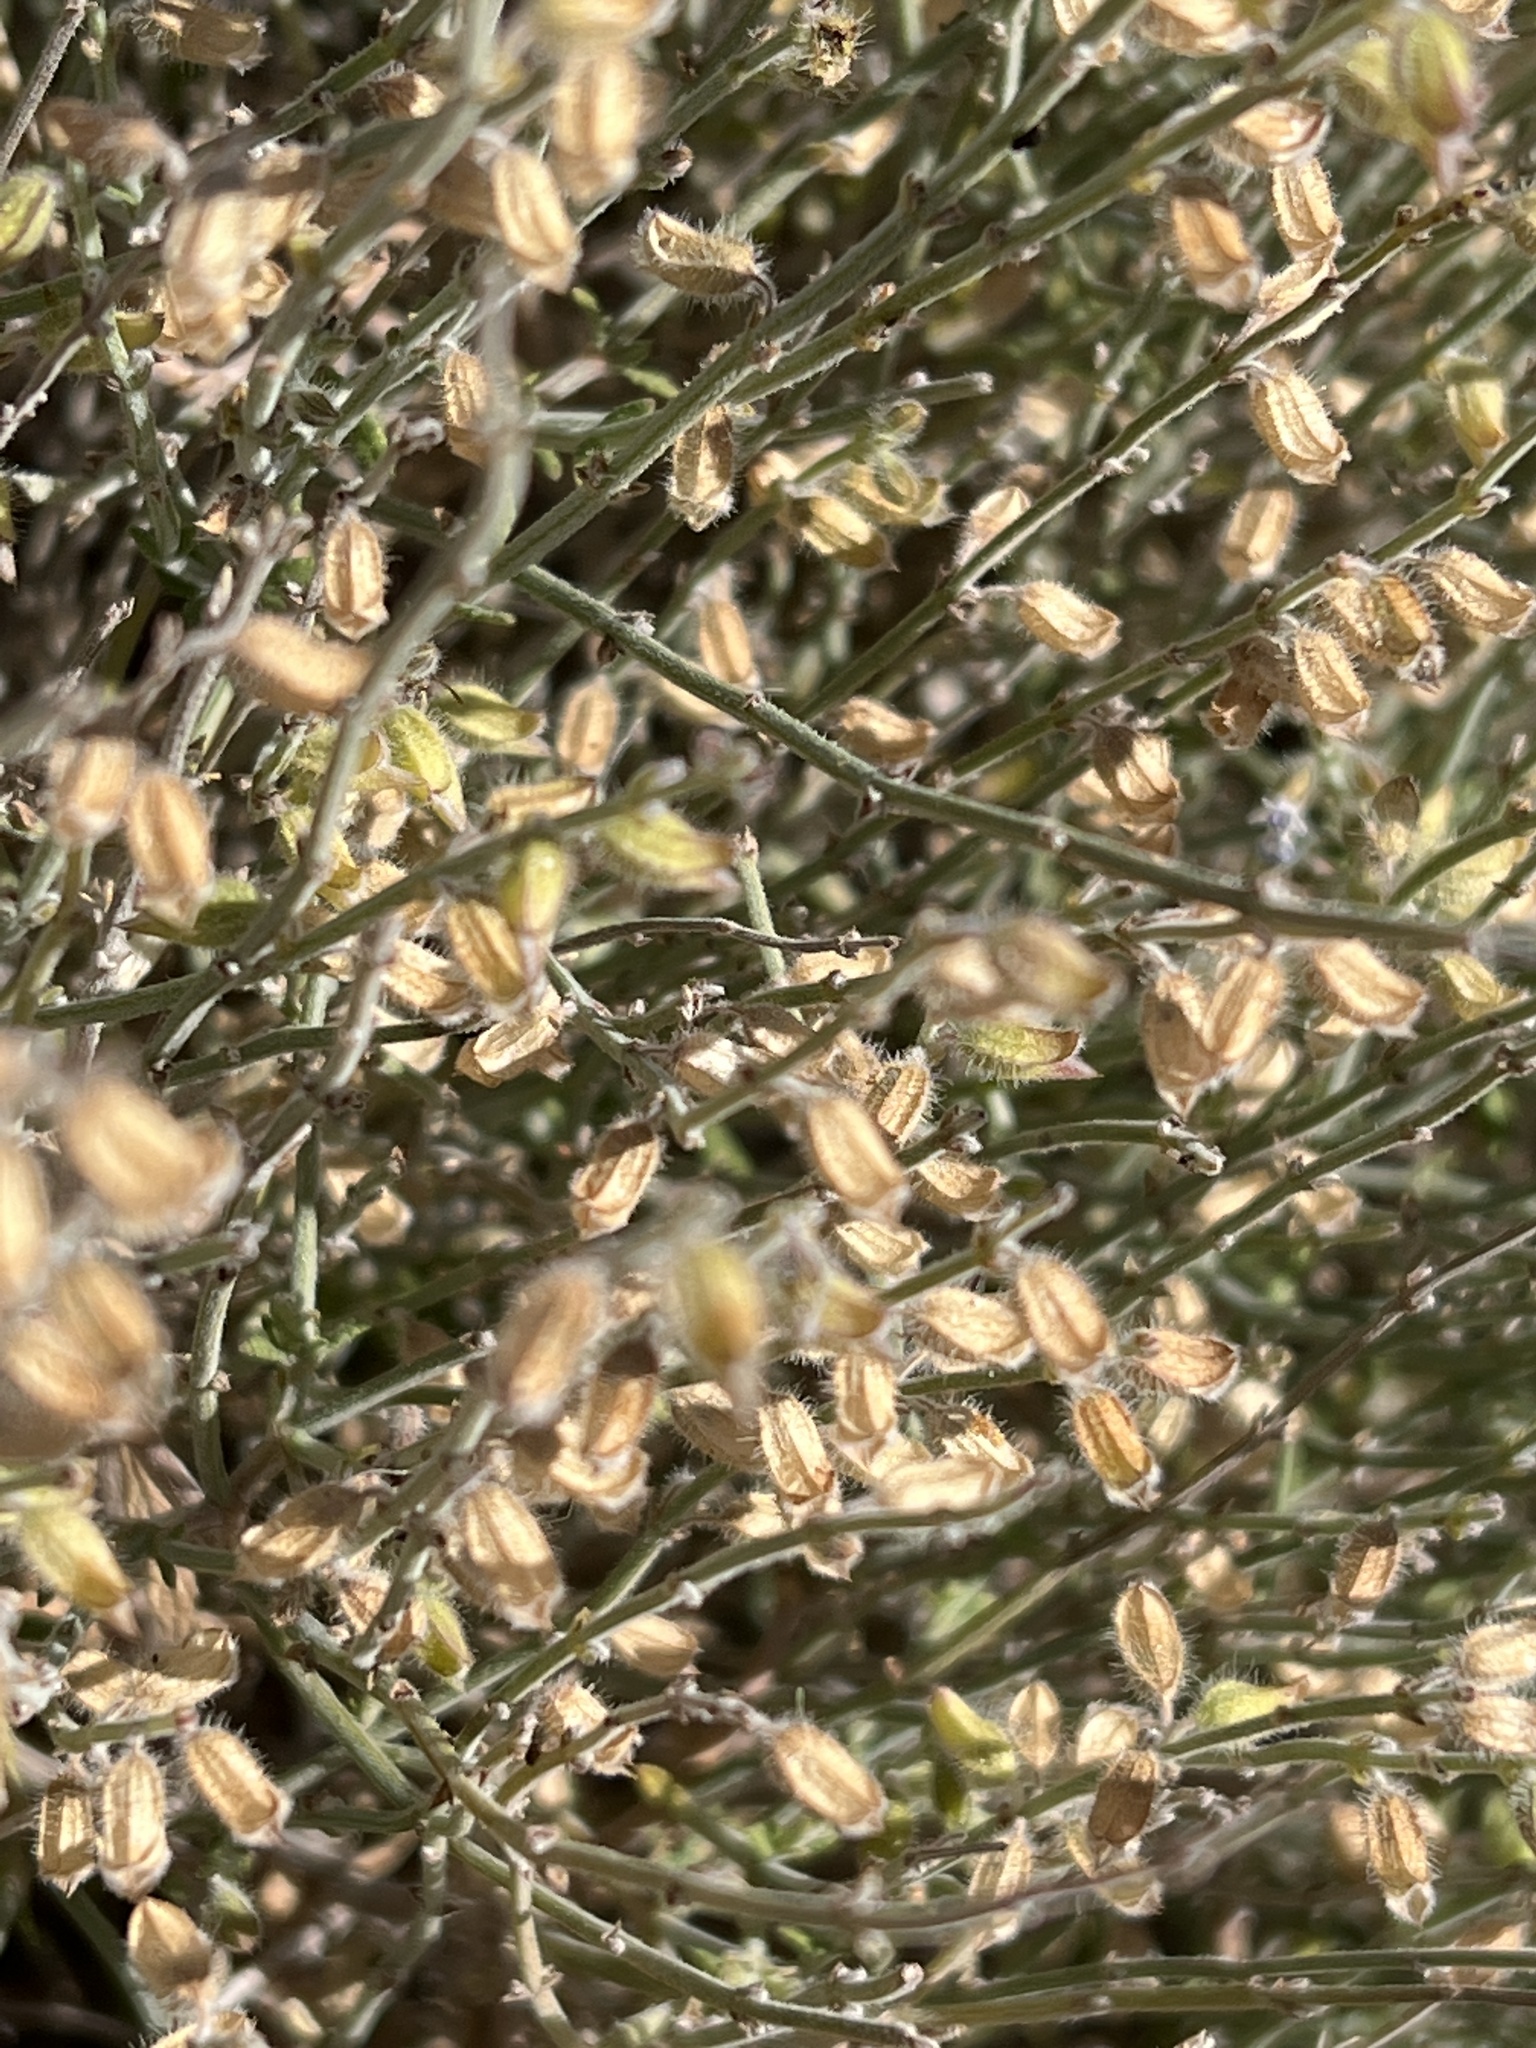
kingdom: Plantae
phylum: Tracheophyta
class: Magnoliopsida
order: Lamiales
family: Lamiaceae
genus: Salvia
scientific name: Salvia aegyptiaca
